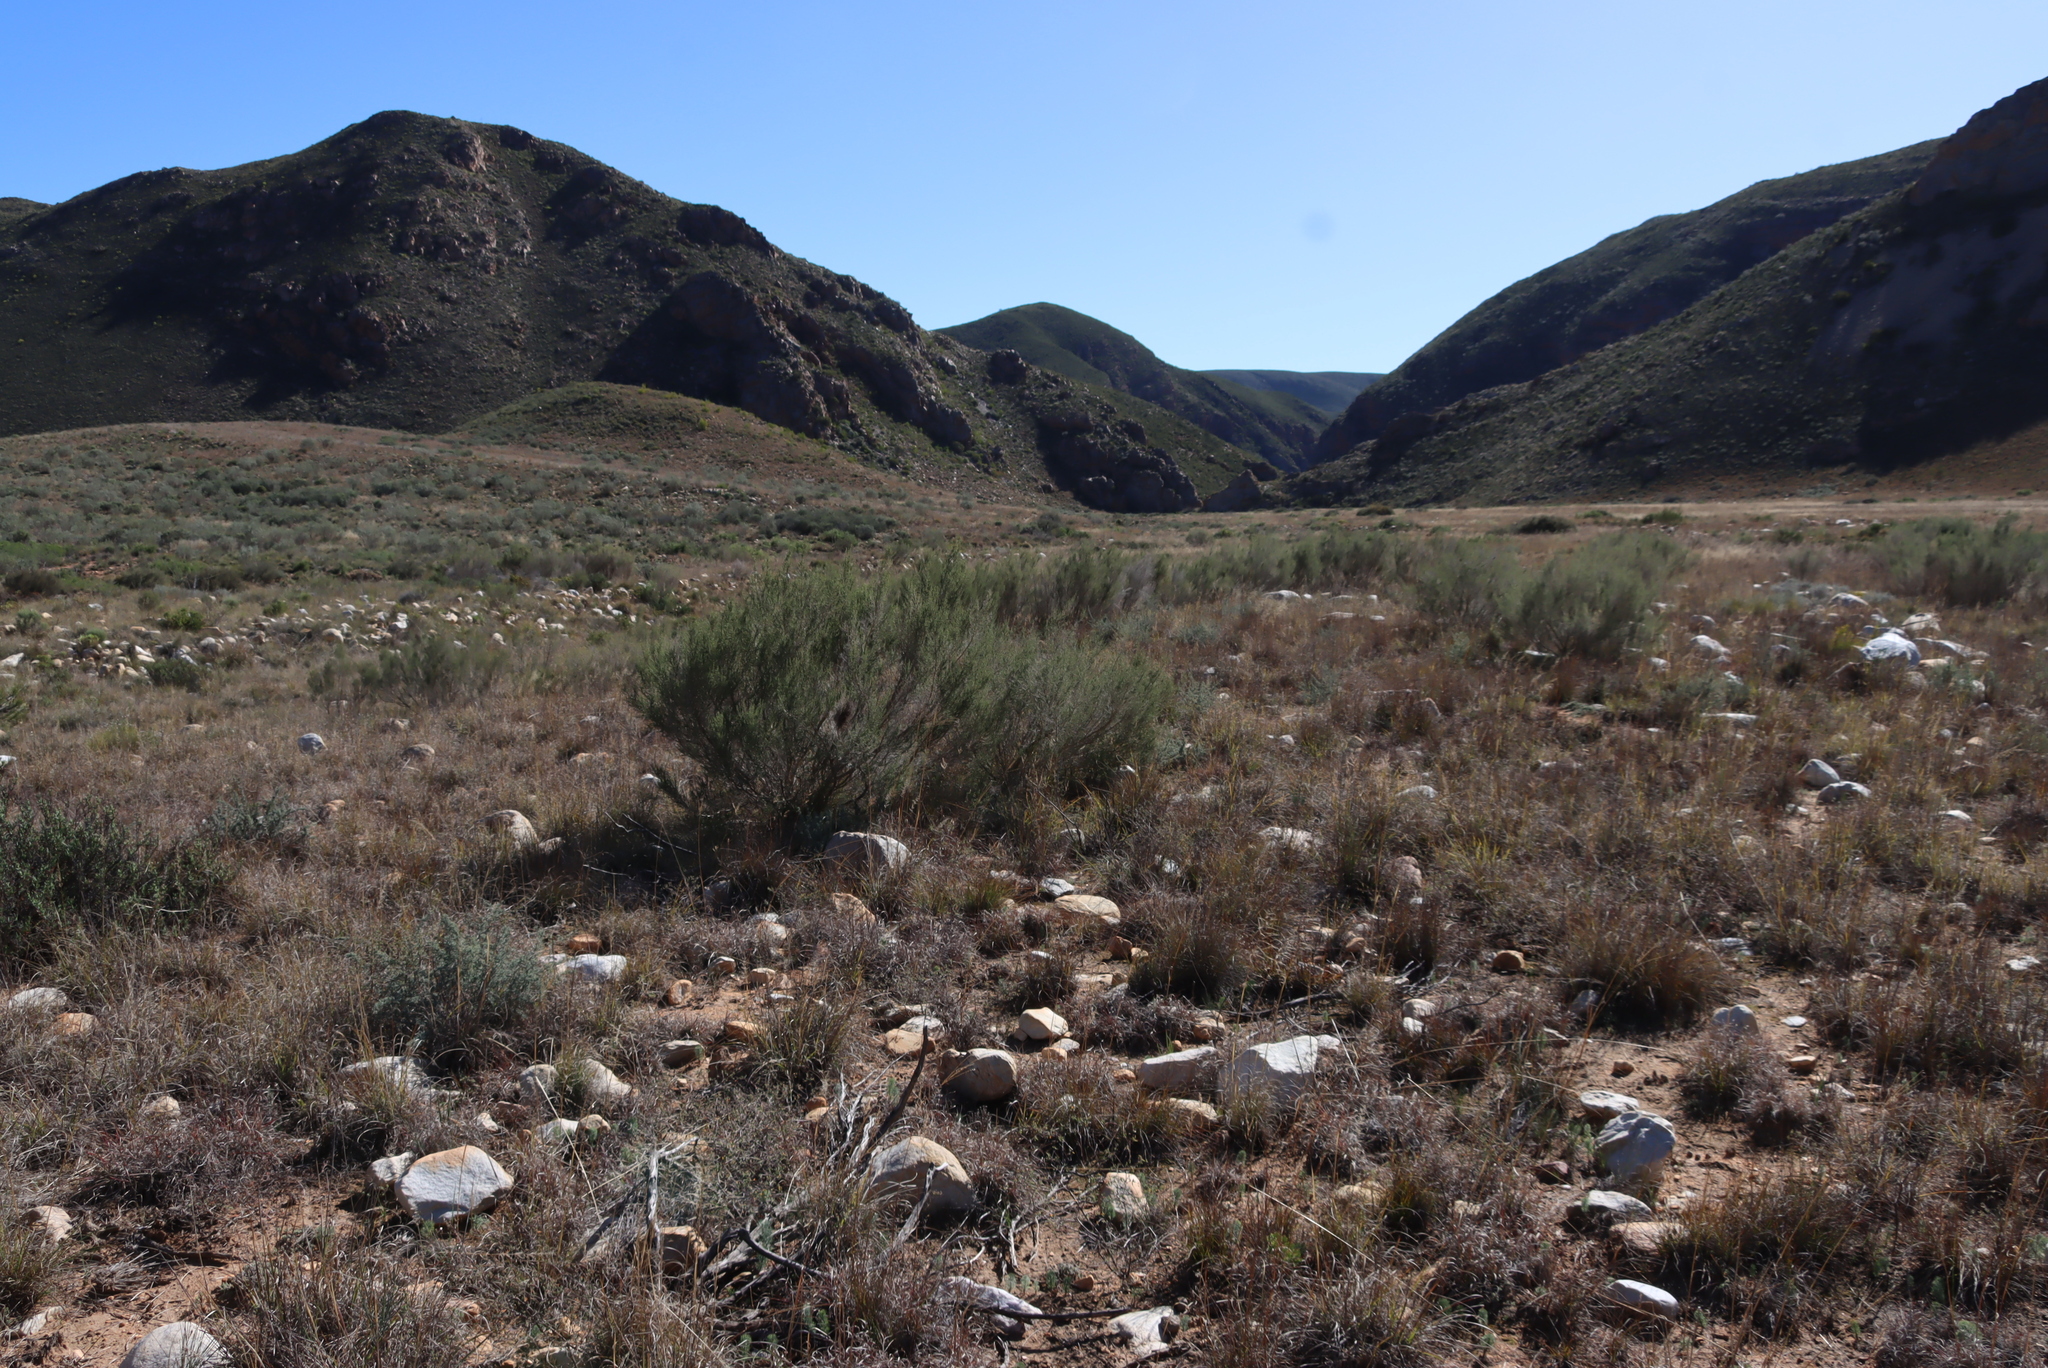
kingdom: Plantae
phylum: Tracheophyta
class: Magnoliopsida
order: Asterales
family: Asteraceae
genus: Dicerothamnus
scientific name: Dicerothamnus rhinocerotis
